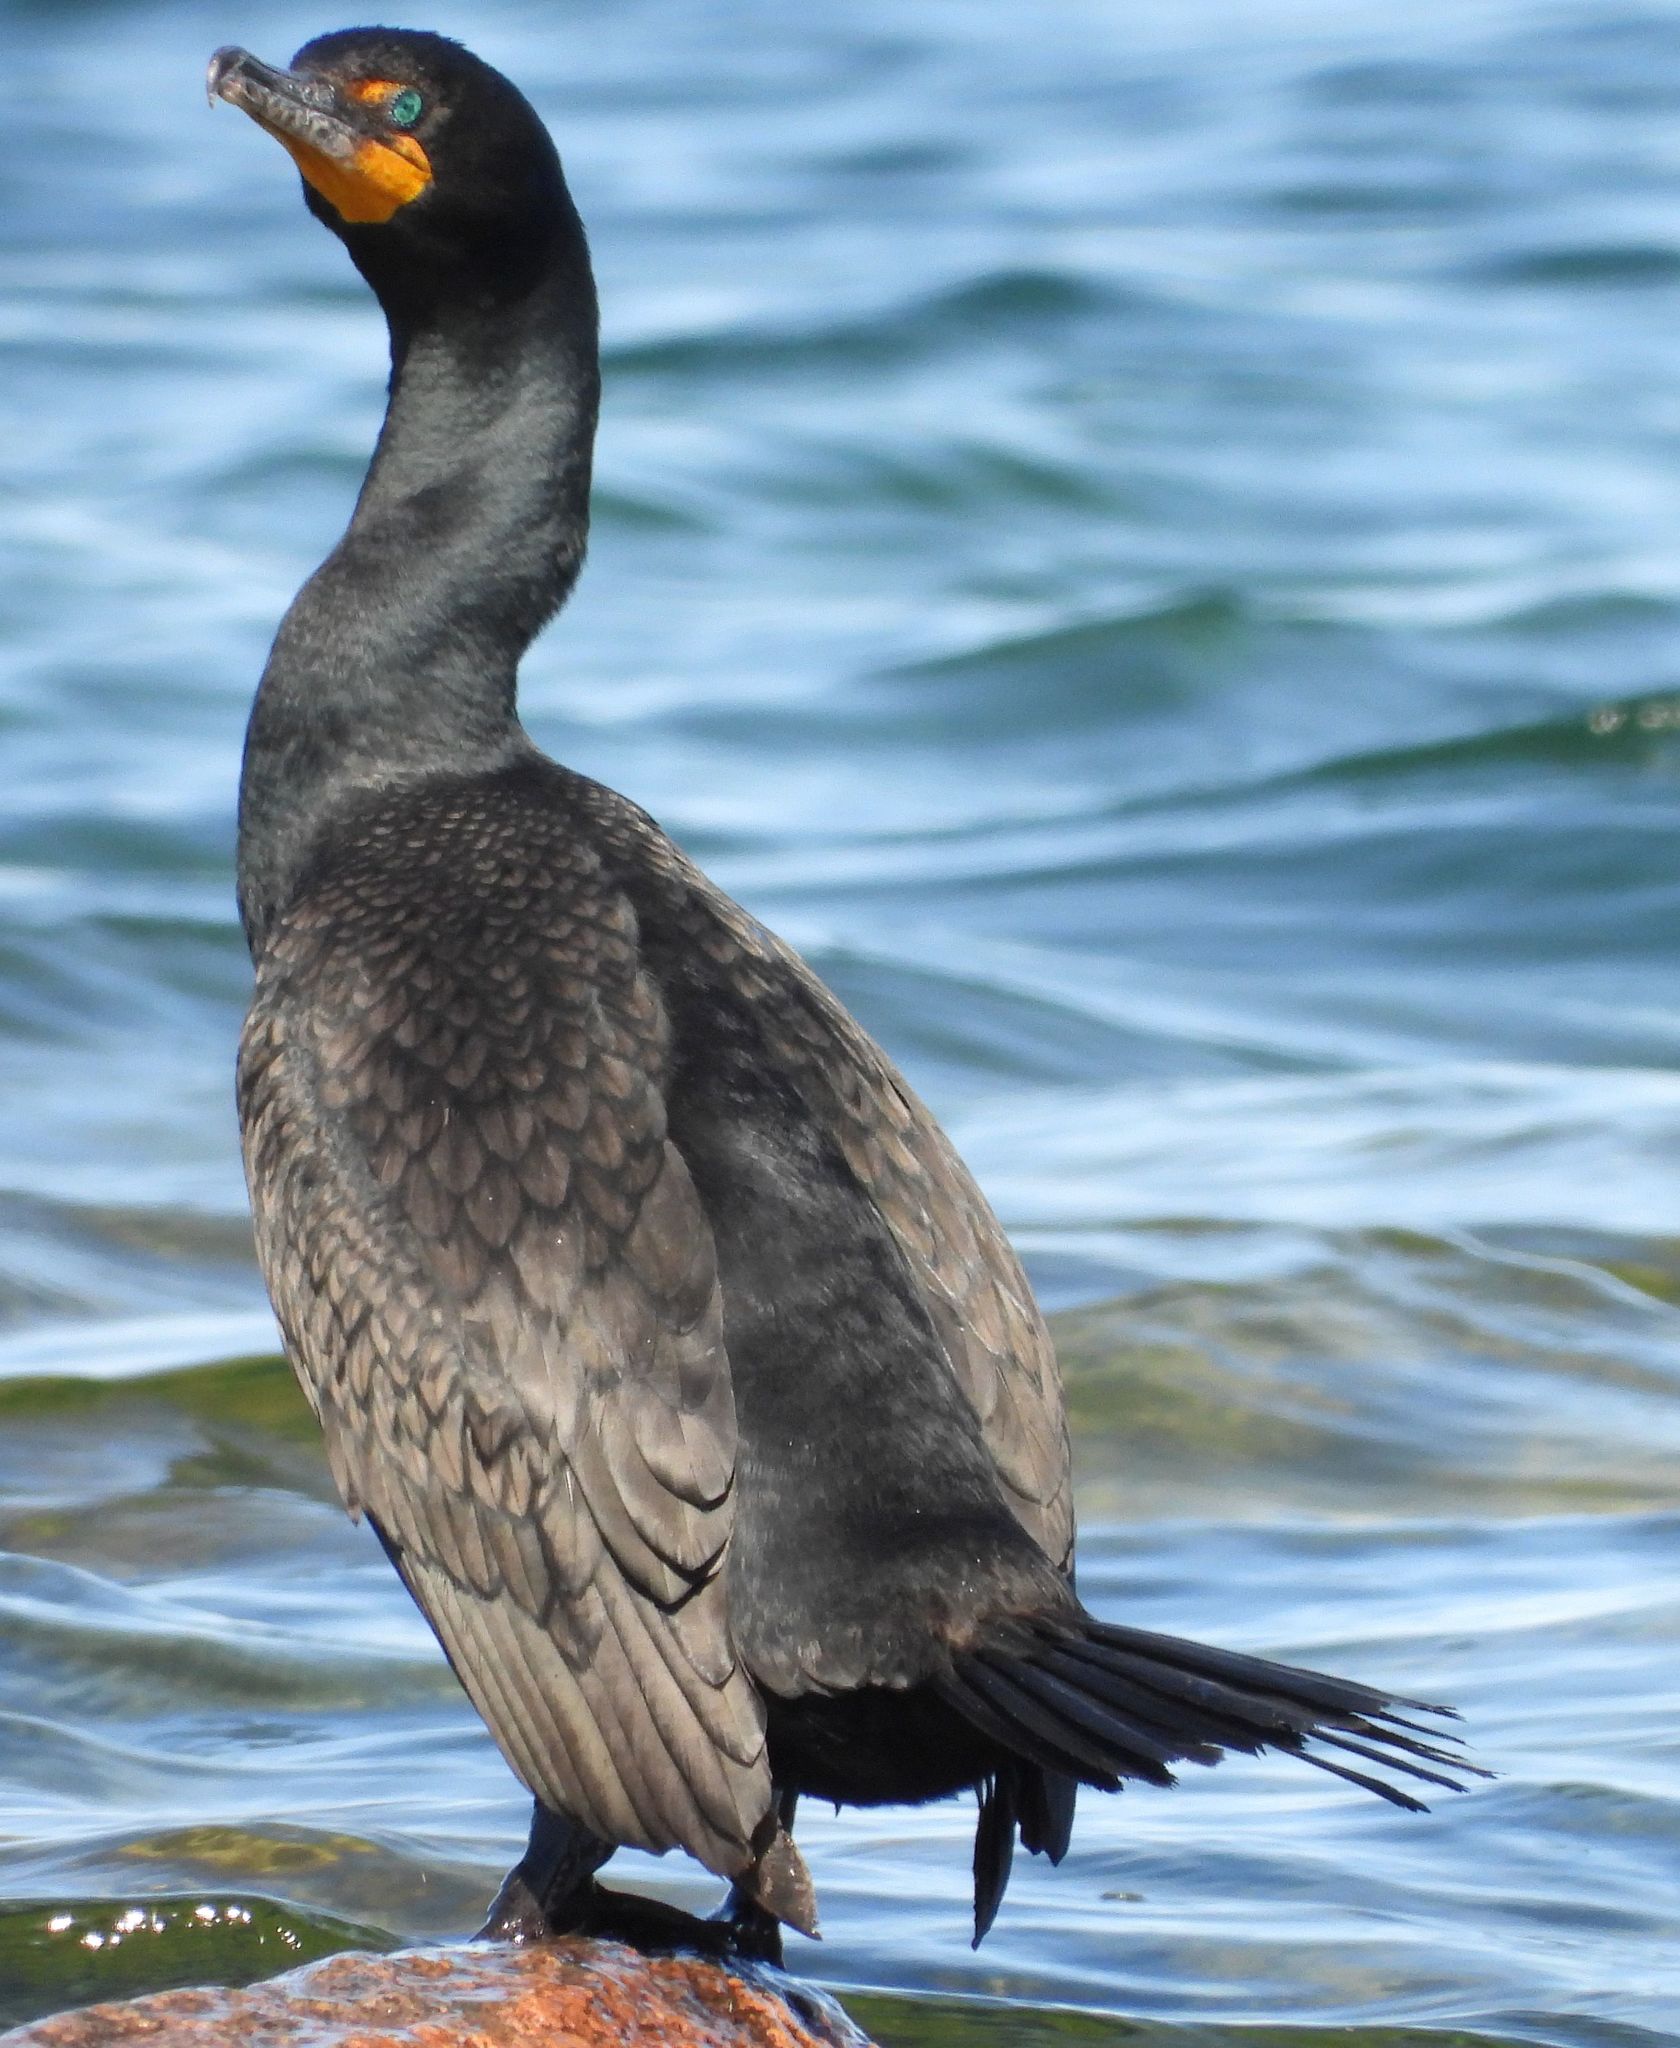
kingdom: Animalia
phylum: Chordata
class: Aves
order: Suliformes
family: Phalacrocoracidae
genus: Phalacrocorax
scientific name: Phalacrocorax auritus
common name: Double-crested cormorant
